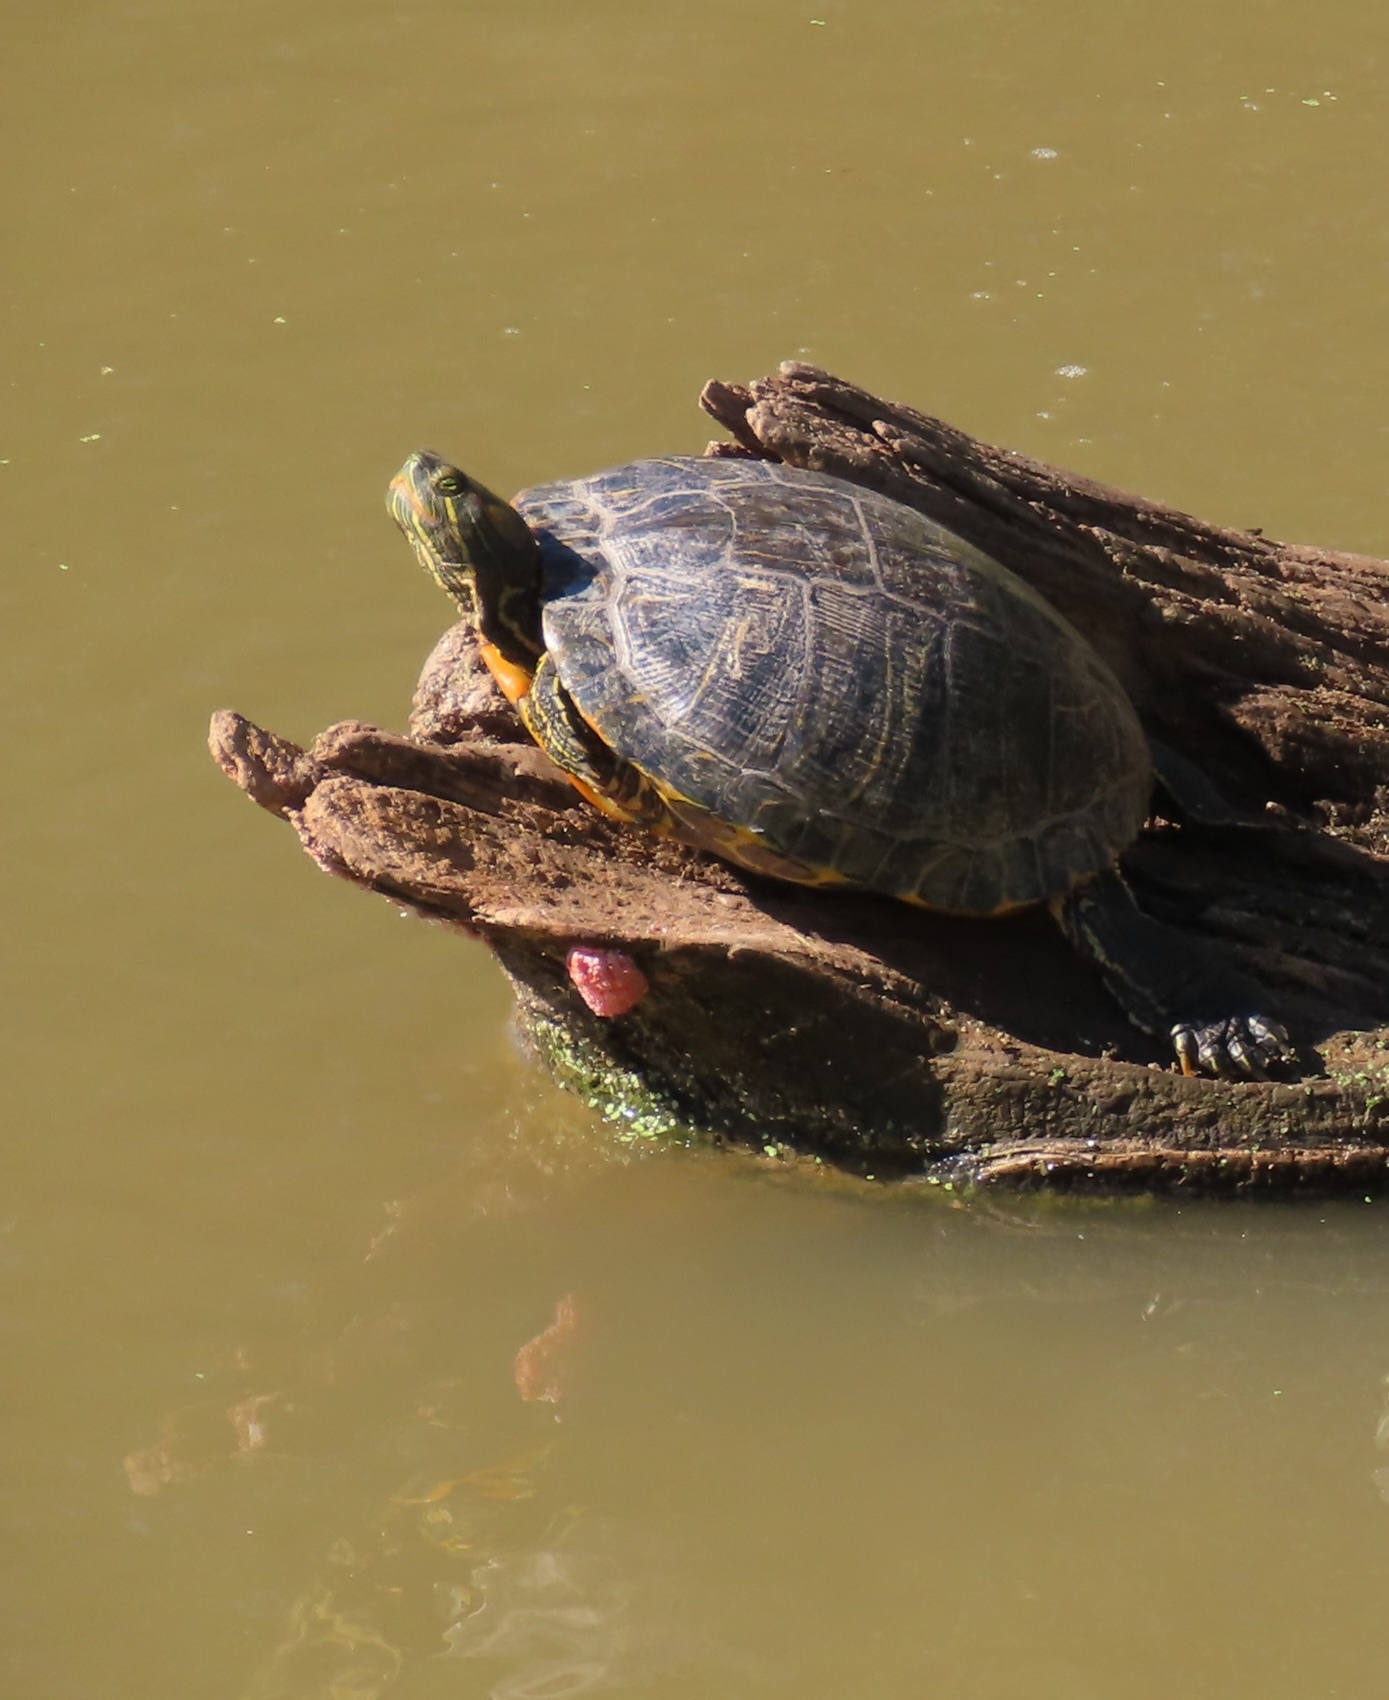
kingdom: Animalia
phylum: Chordata
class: Testudines
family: Emydidae
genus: Trachemys
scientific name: Trachemys scripta
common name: Slider
